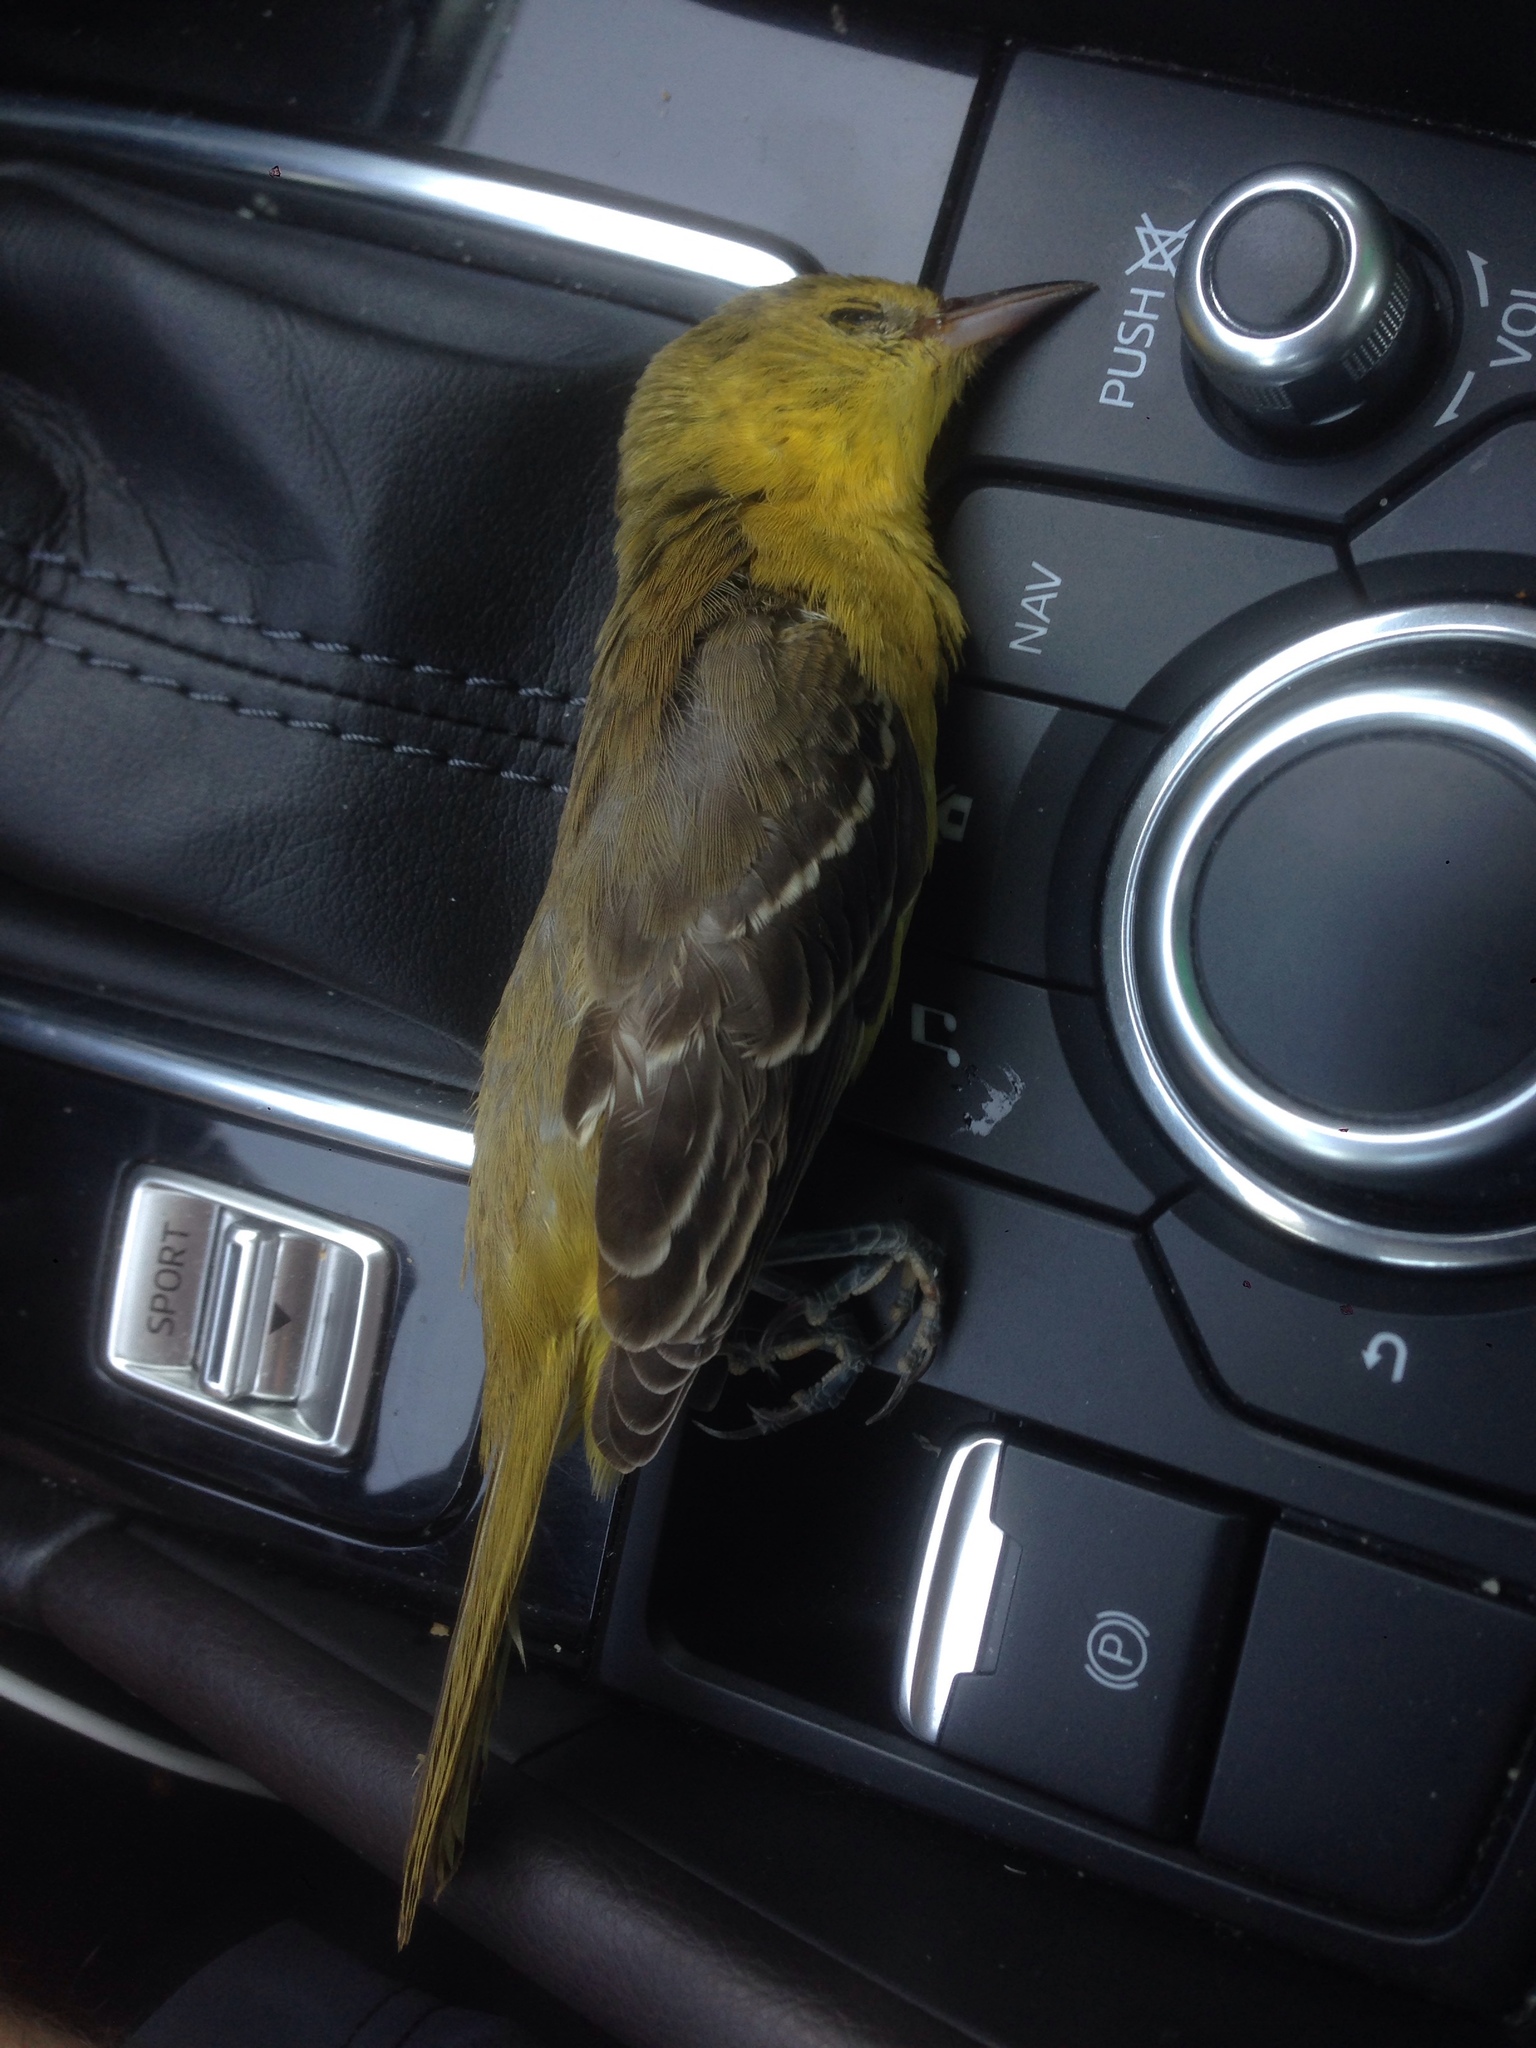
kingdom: Animalia
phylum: Chordata
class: Aves
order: Passeriformes
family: Icteridae
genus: Icterus
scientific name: Icterus spurius
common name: Orchard oriole
